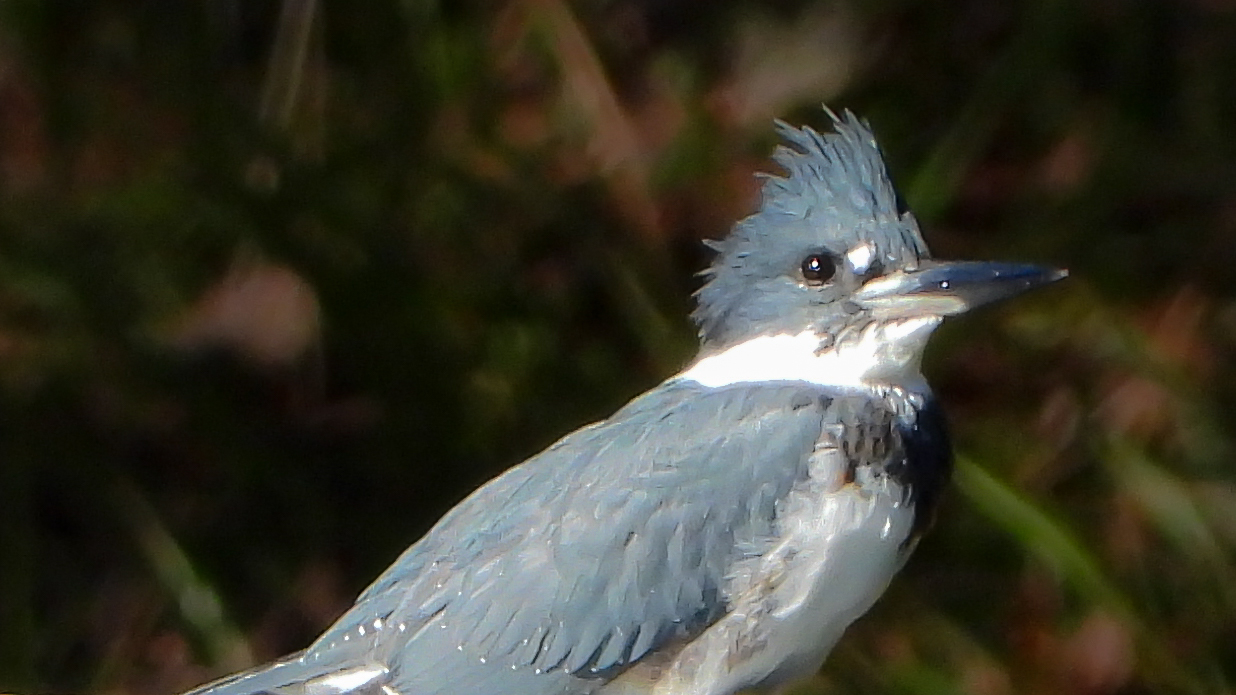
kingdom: Animalia
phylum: Chordata
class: Aves
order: Coraciiformes
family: Alcedinidae
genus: Megaceryle
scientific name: Megaceryle alcyon
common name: Belted kingfisher
